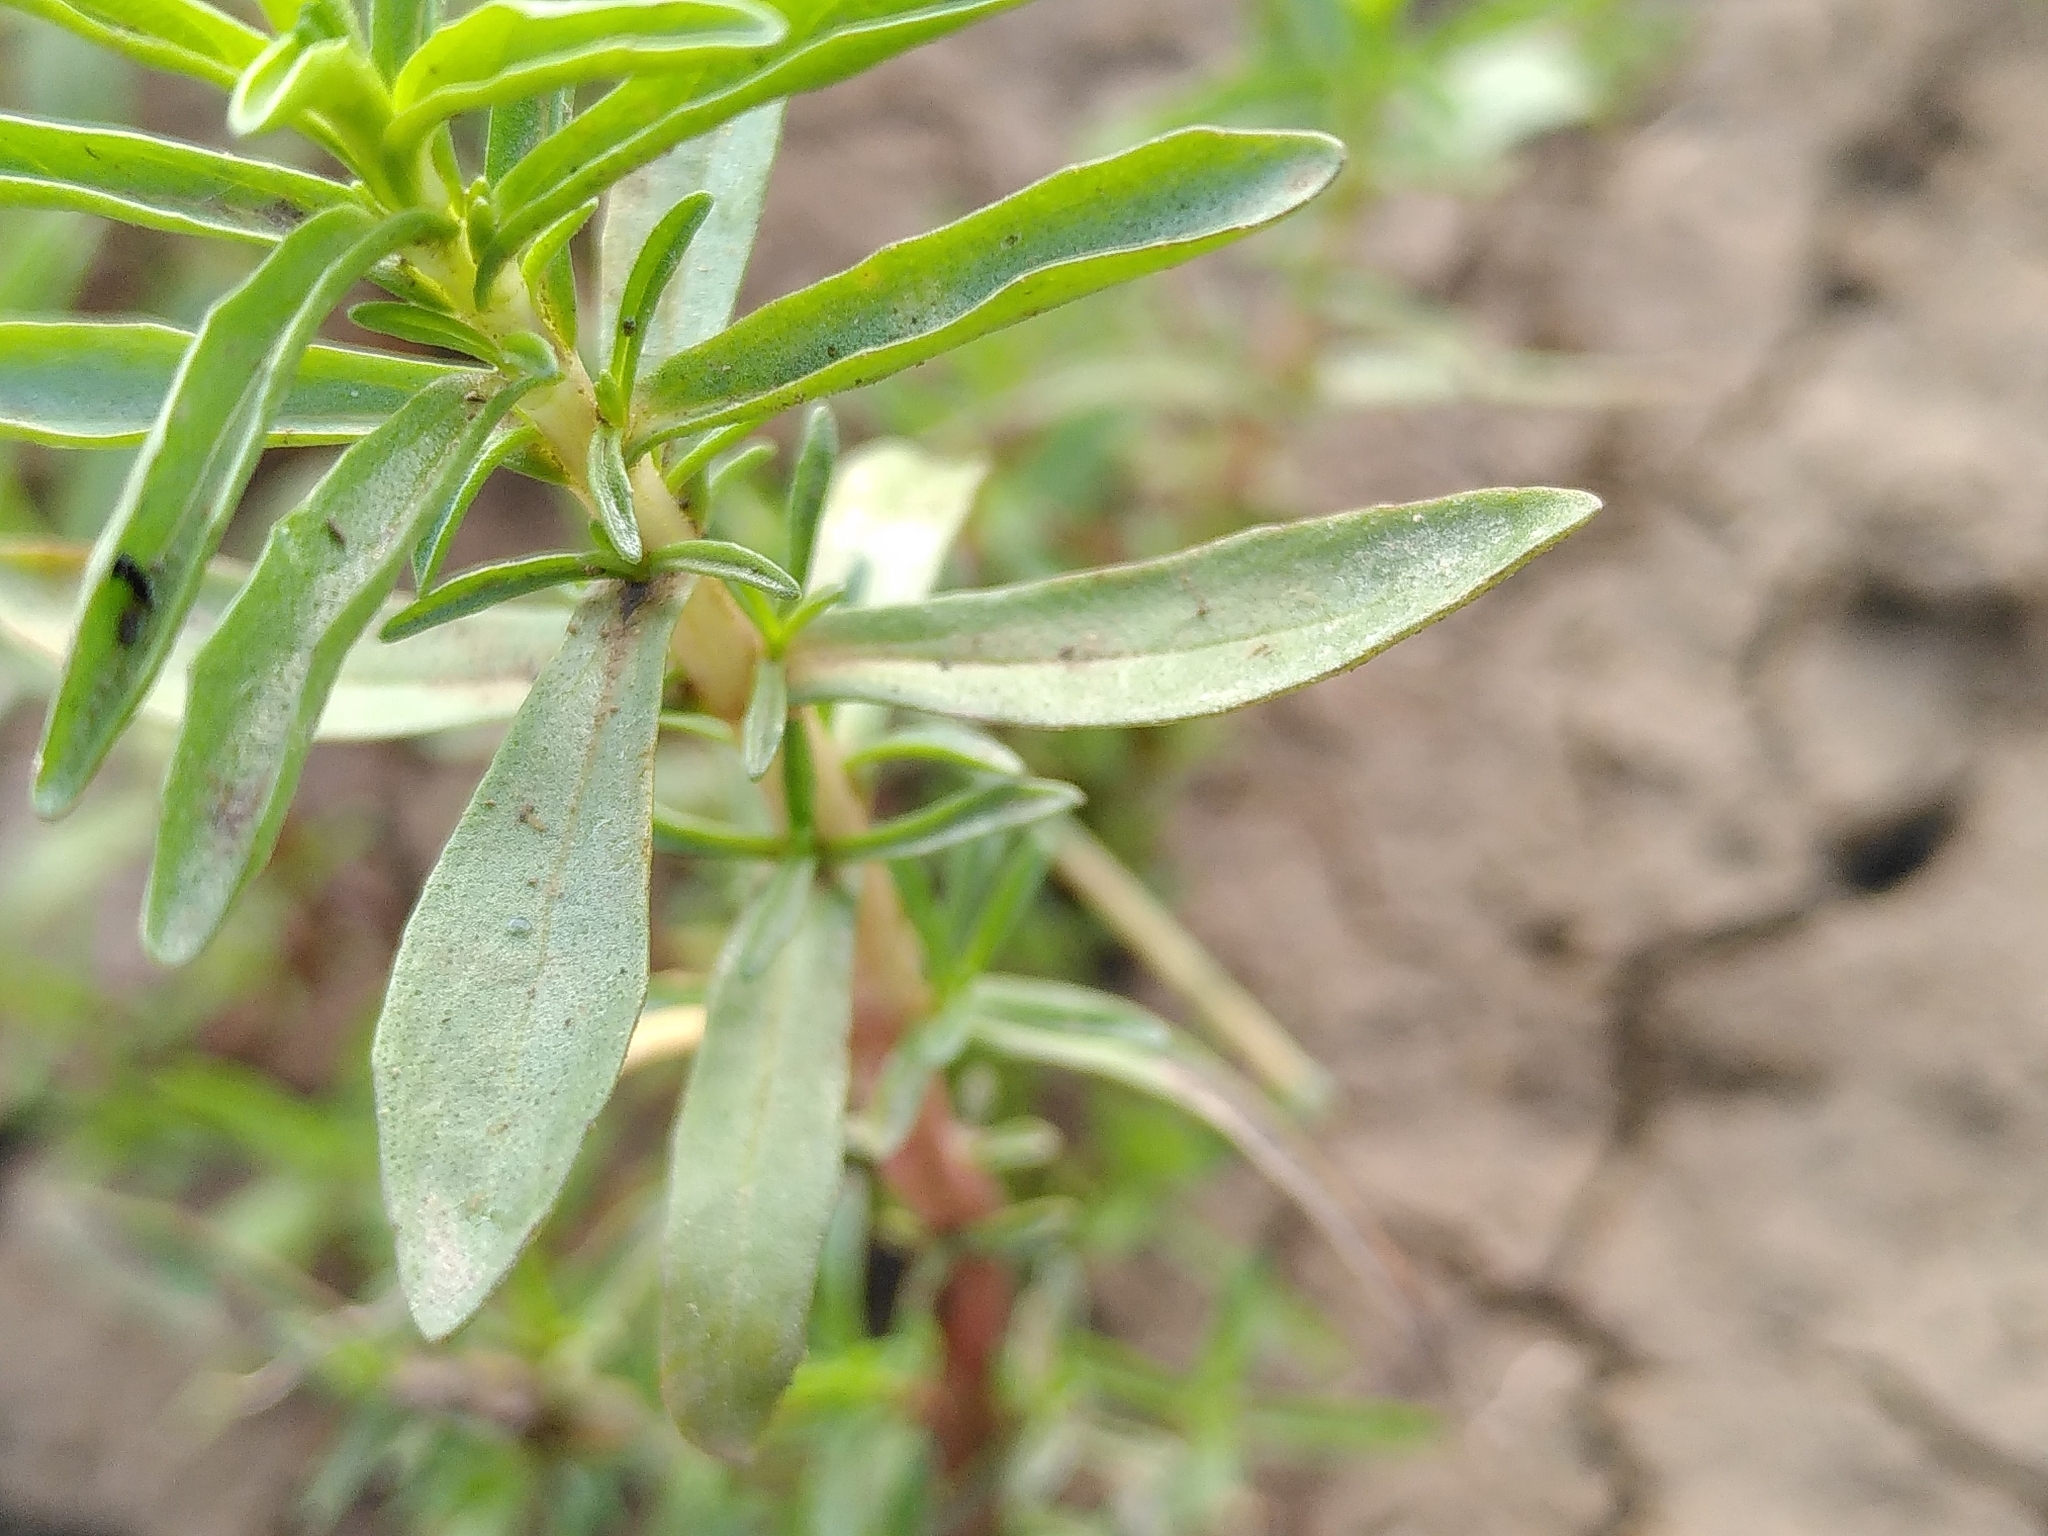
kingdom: Plantae
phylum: Tracheophyta
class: Magnoliopsida
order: Lamiales
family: Lamiaceae
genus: Mentha
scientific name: Mentha cervina
